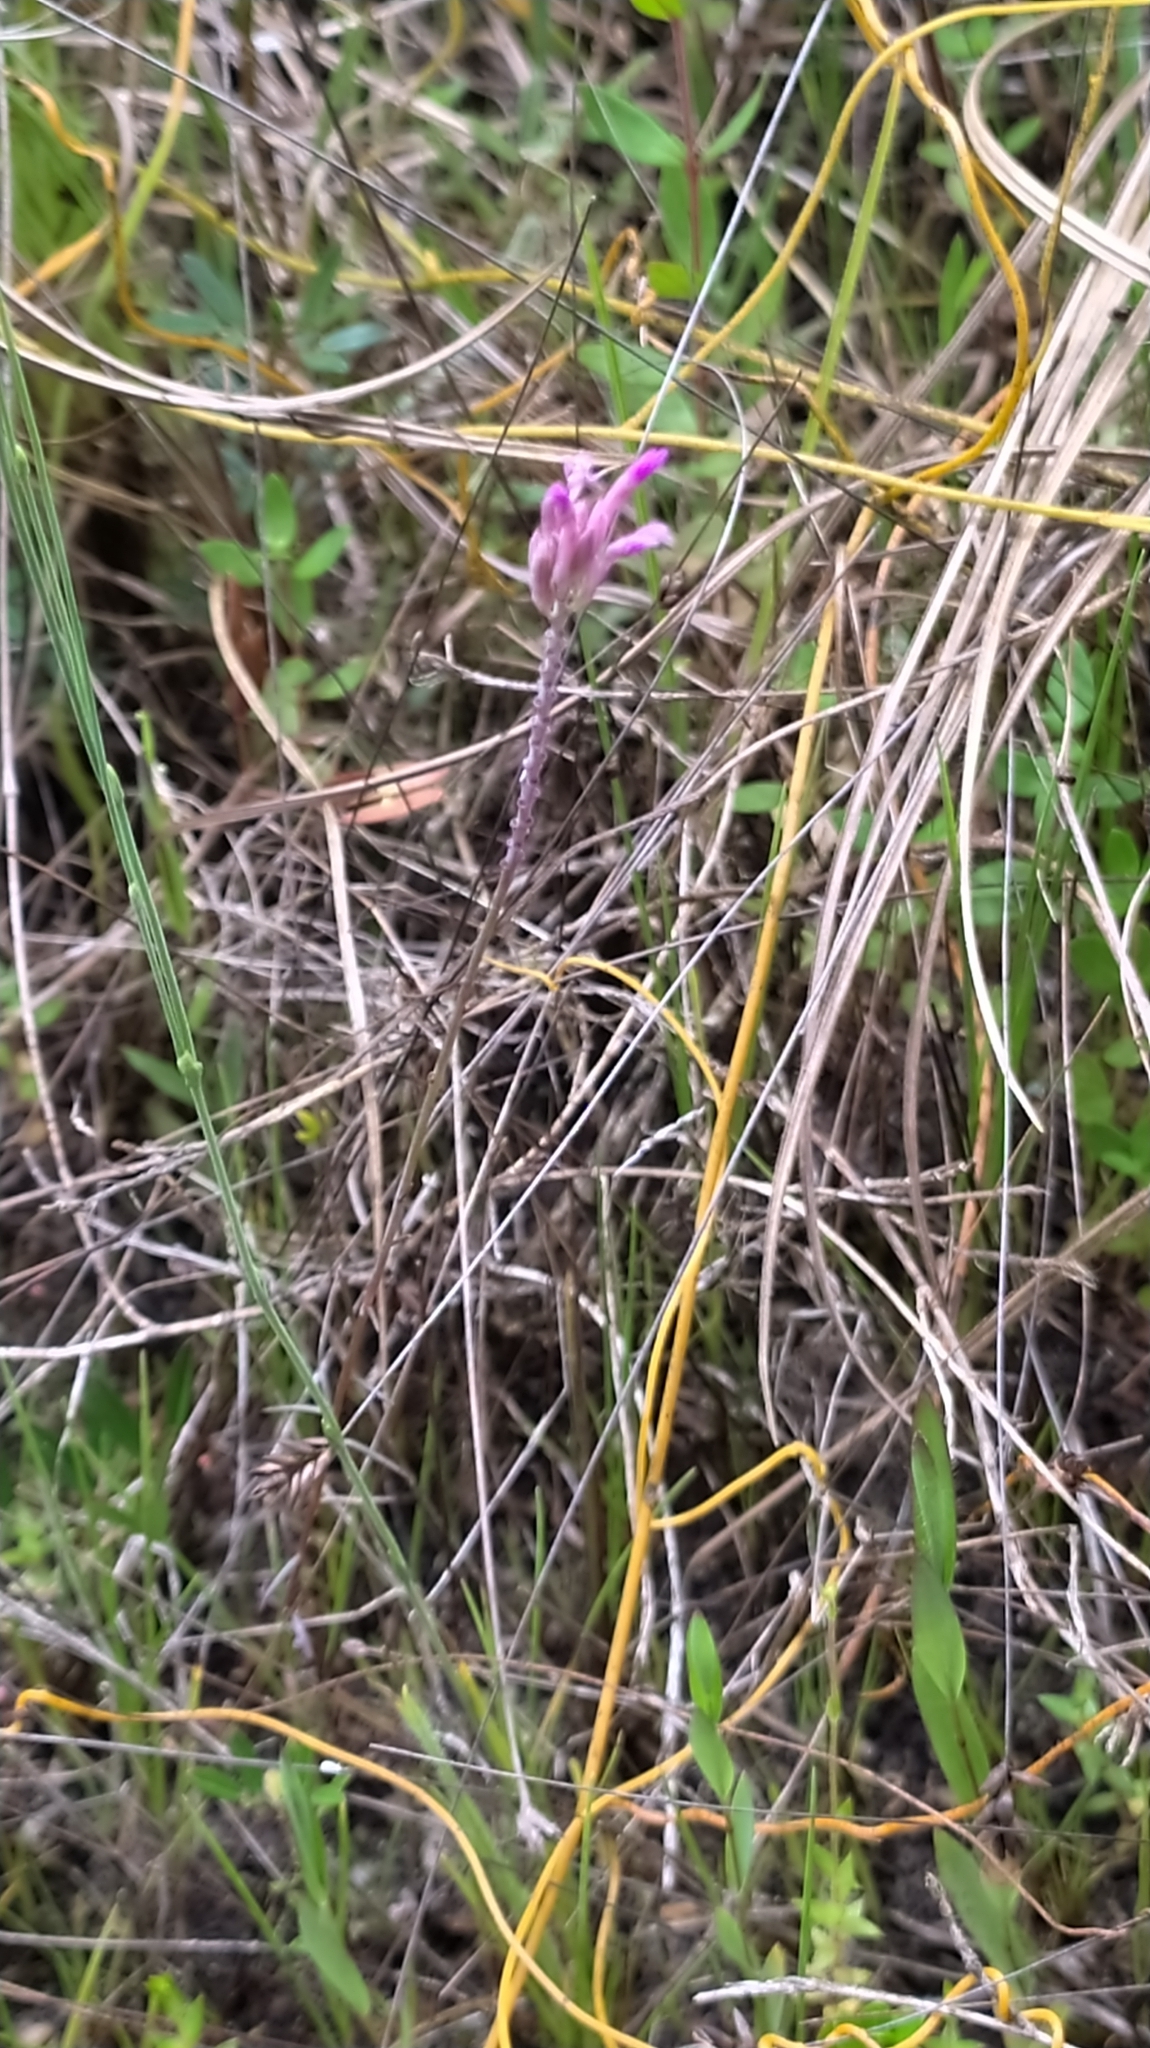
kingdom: Plantae
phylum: Tracheophyta
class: Magnoliopsida
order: Fabales
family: Polygalaceae
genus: Polygala
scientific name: Polygala adenophora
